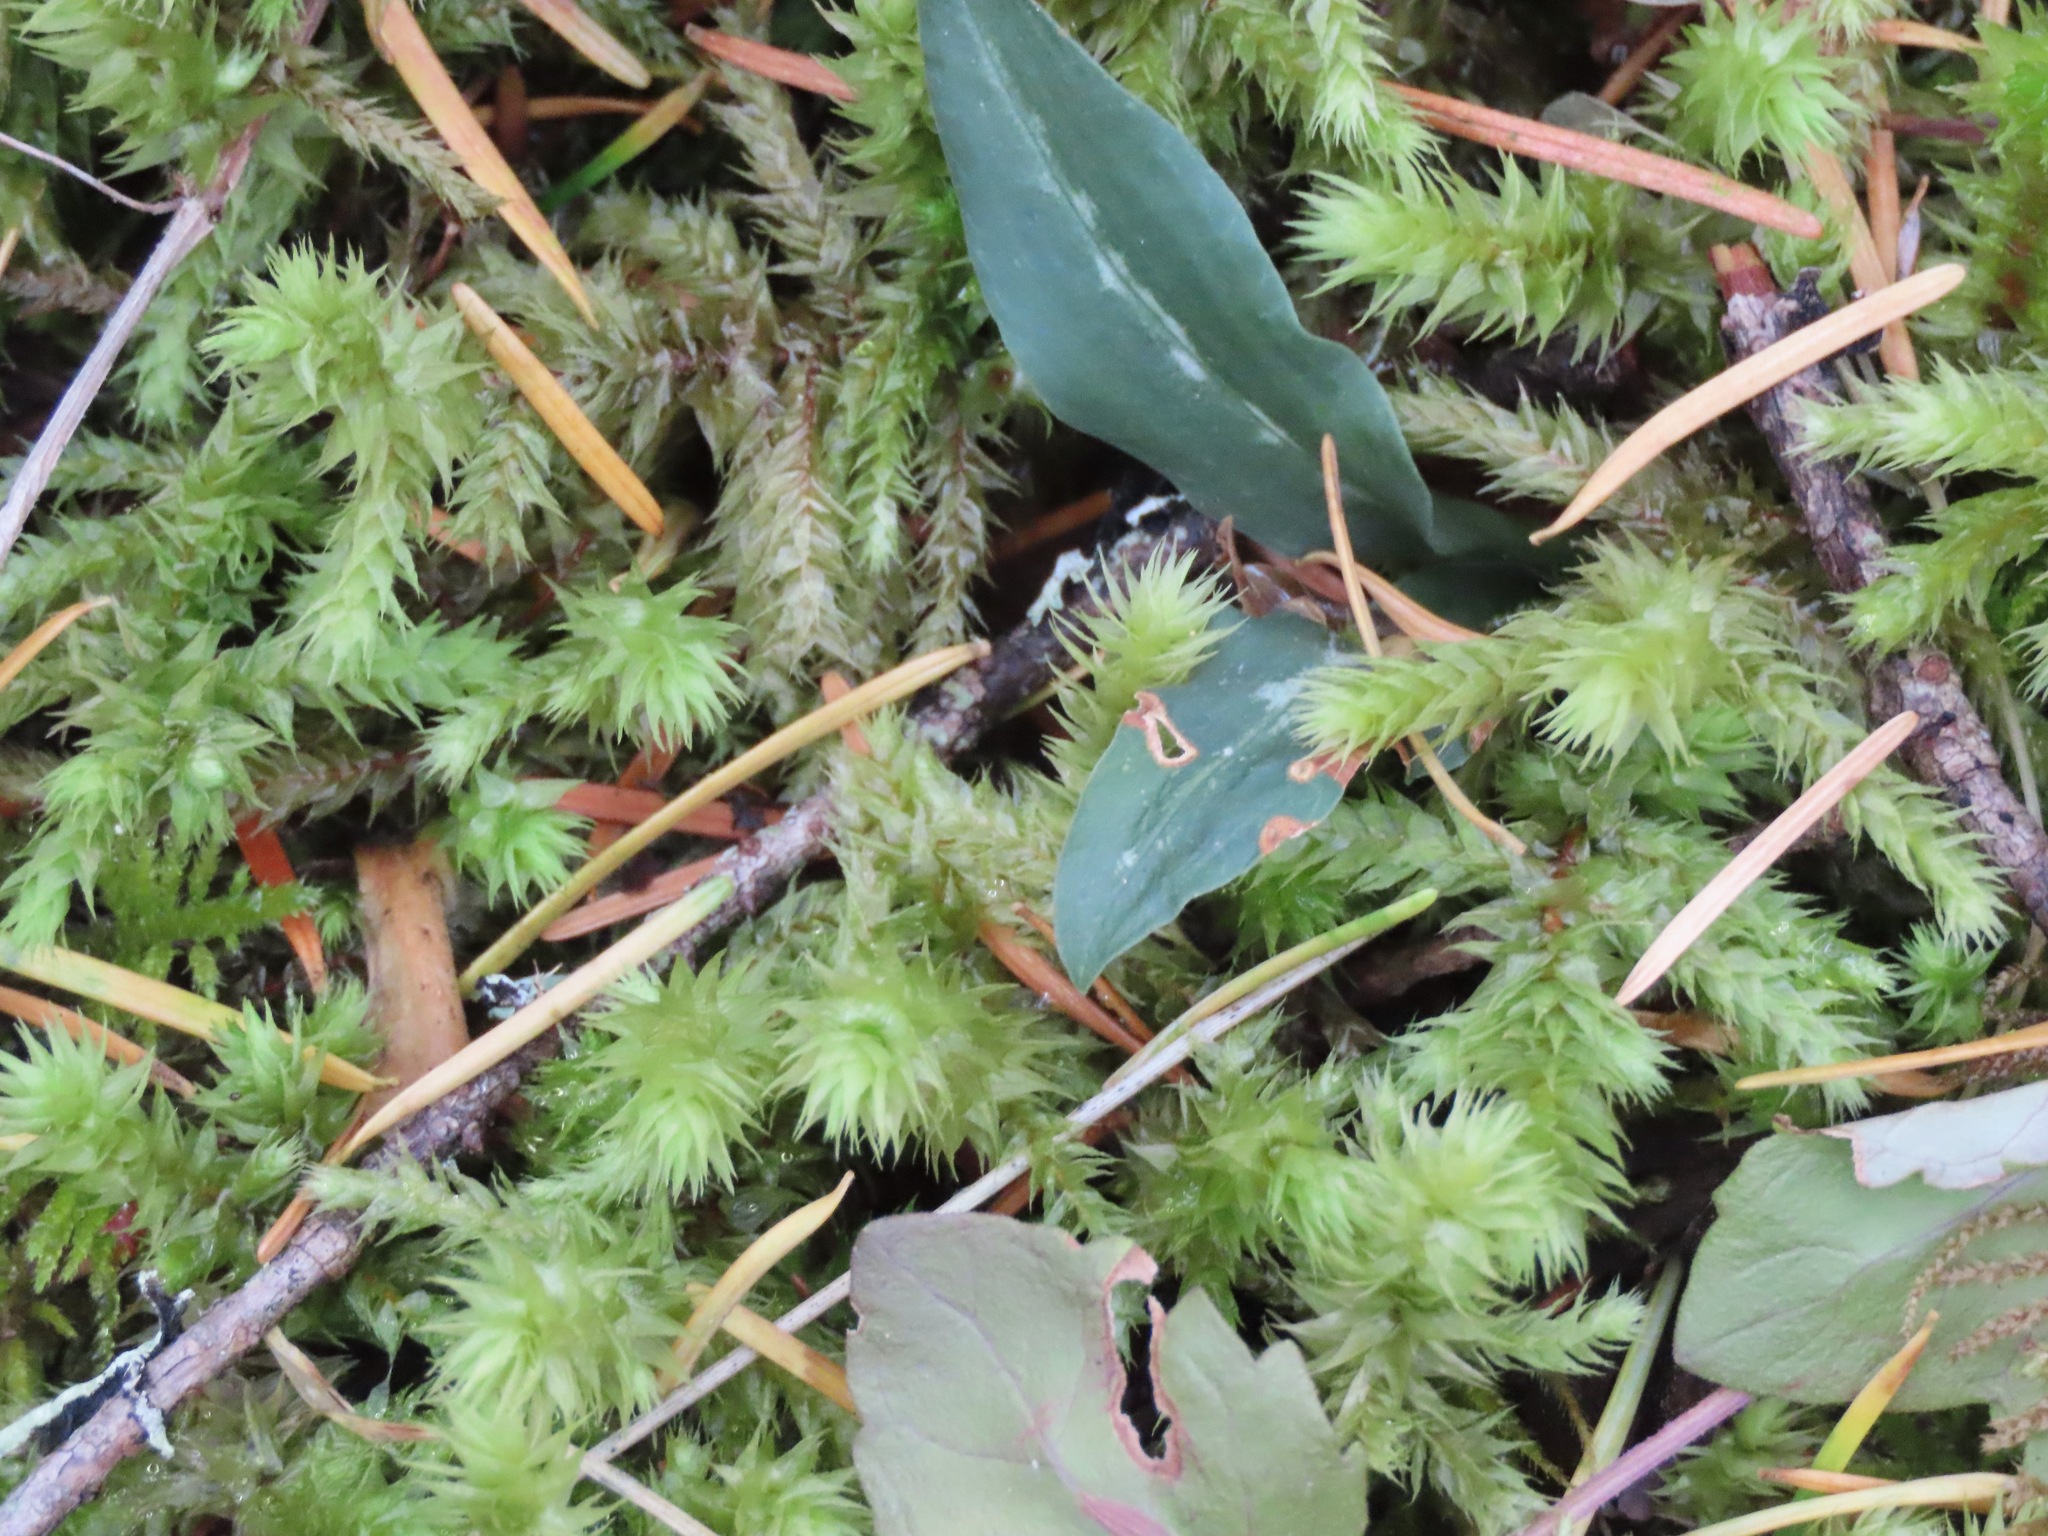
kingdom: Plantae
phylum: Tracheophyta
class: Liliopsida
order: Asparagales
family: Orchidaceae
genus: Goodyera
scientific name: Goodyera oblongifolia
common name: Giant rattlesnake-plantain
